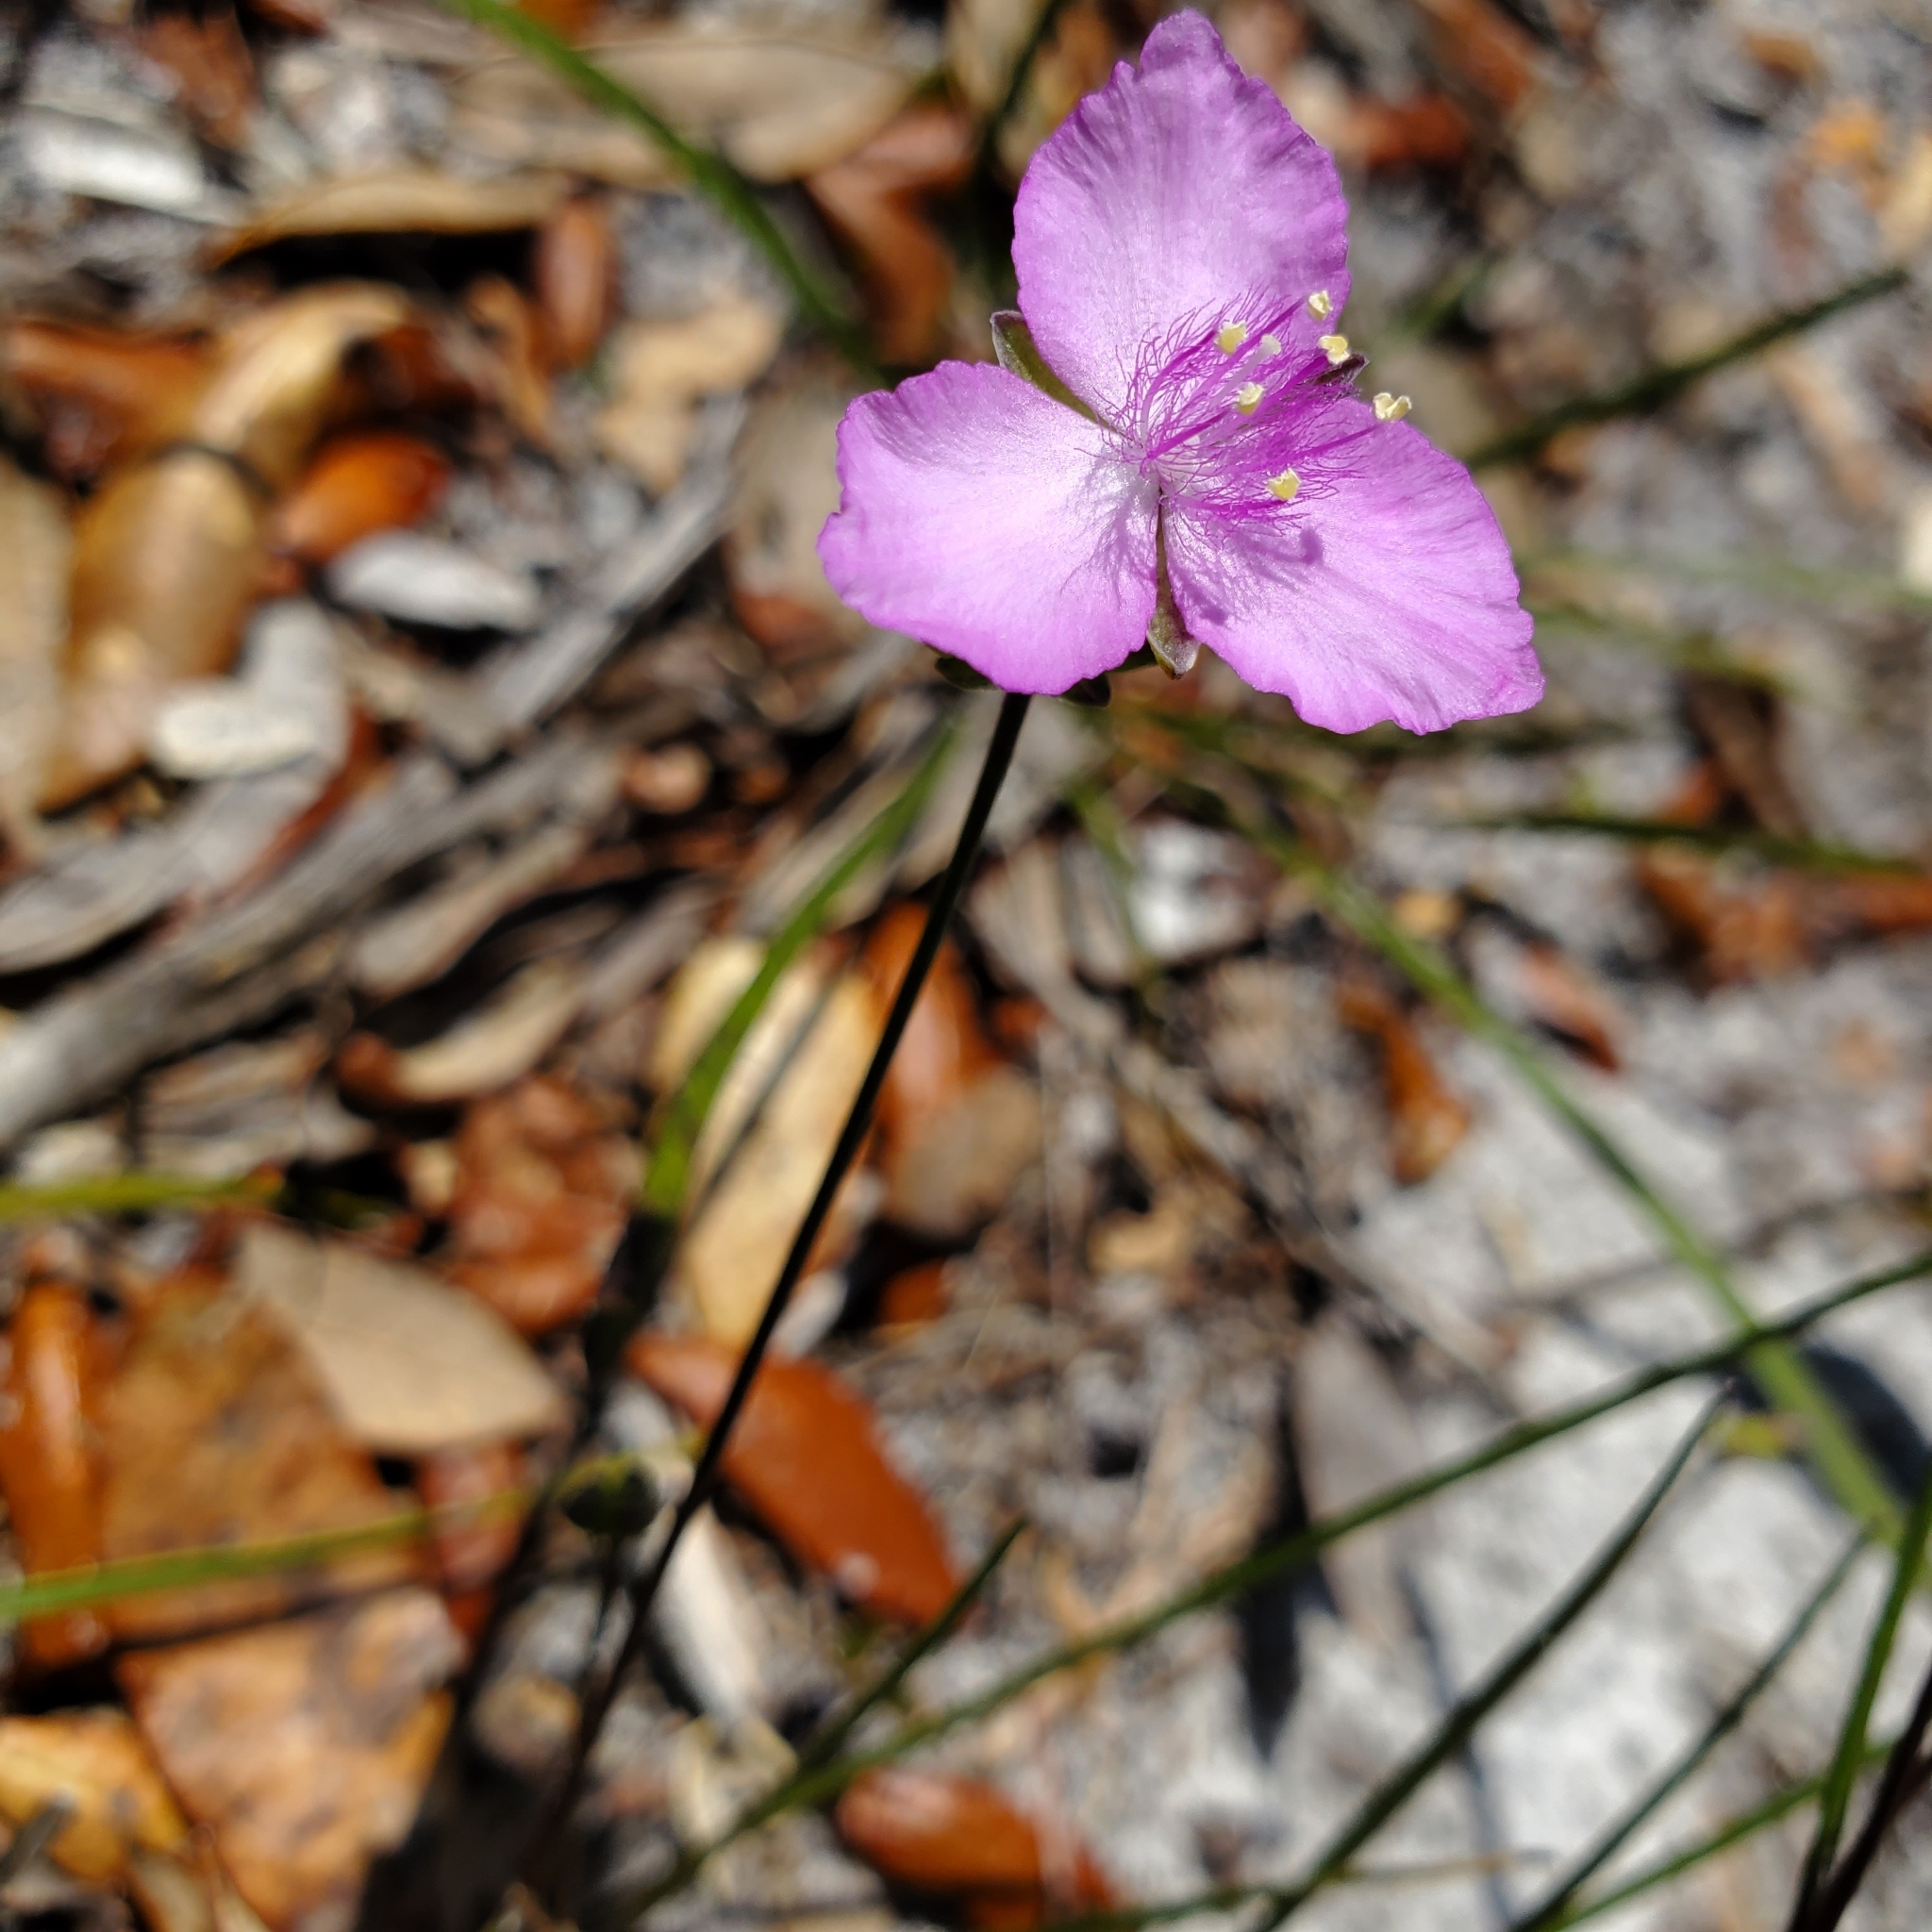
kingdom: Plantae
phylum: Tracheophyta
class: Liliopsida
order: Commelinales
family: Commelinaceae
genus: Callisia
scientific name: Callisia graminea
